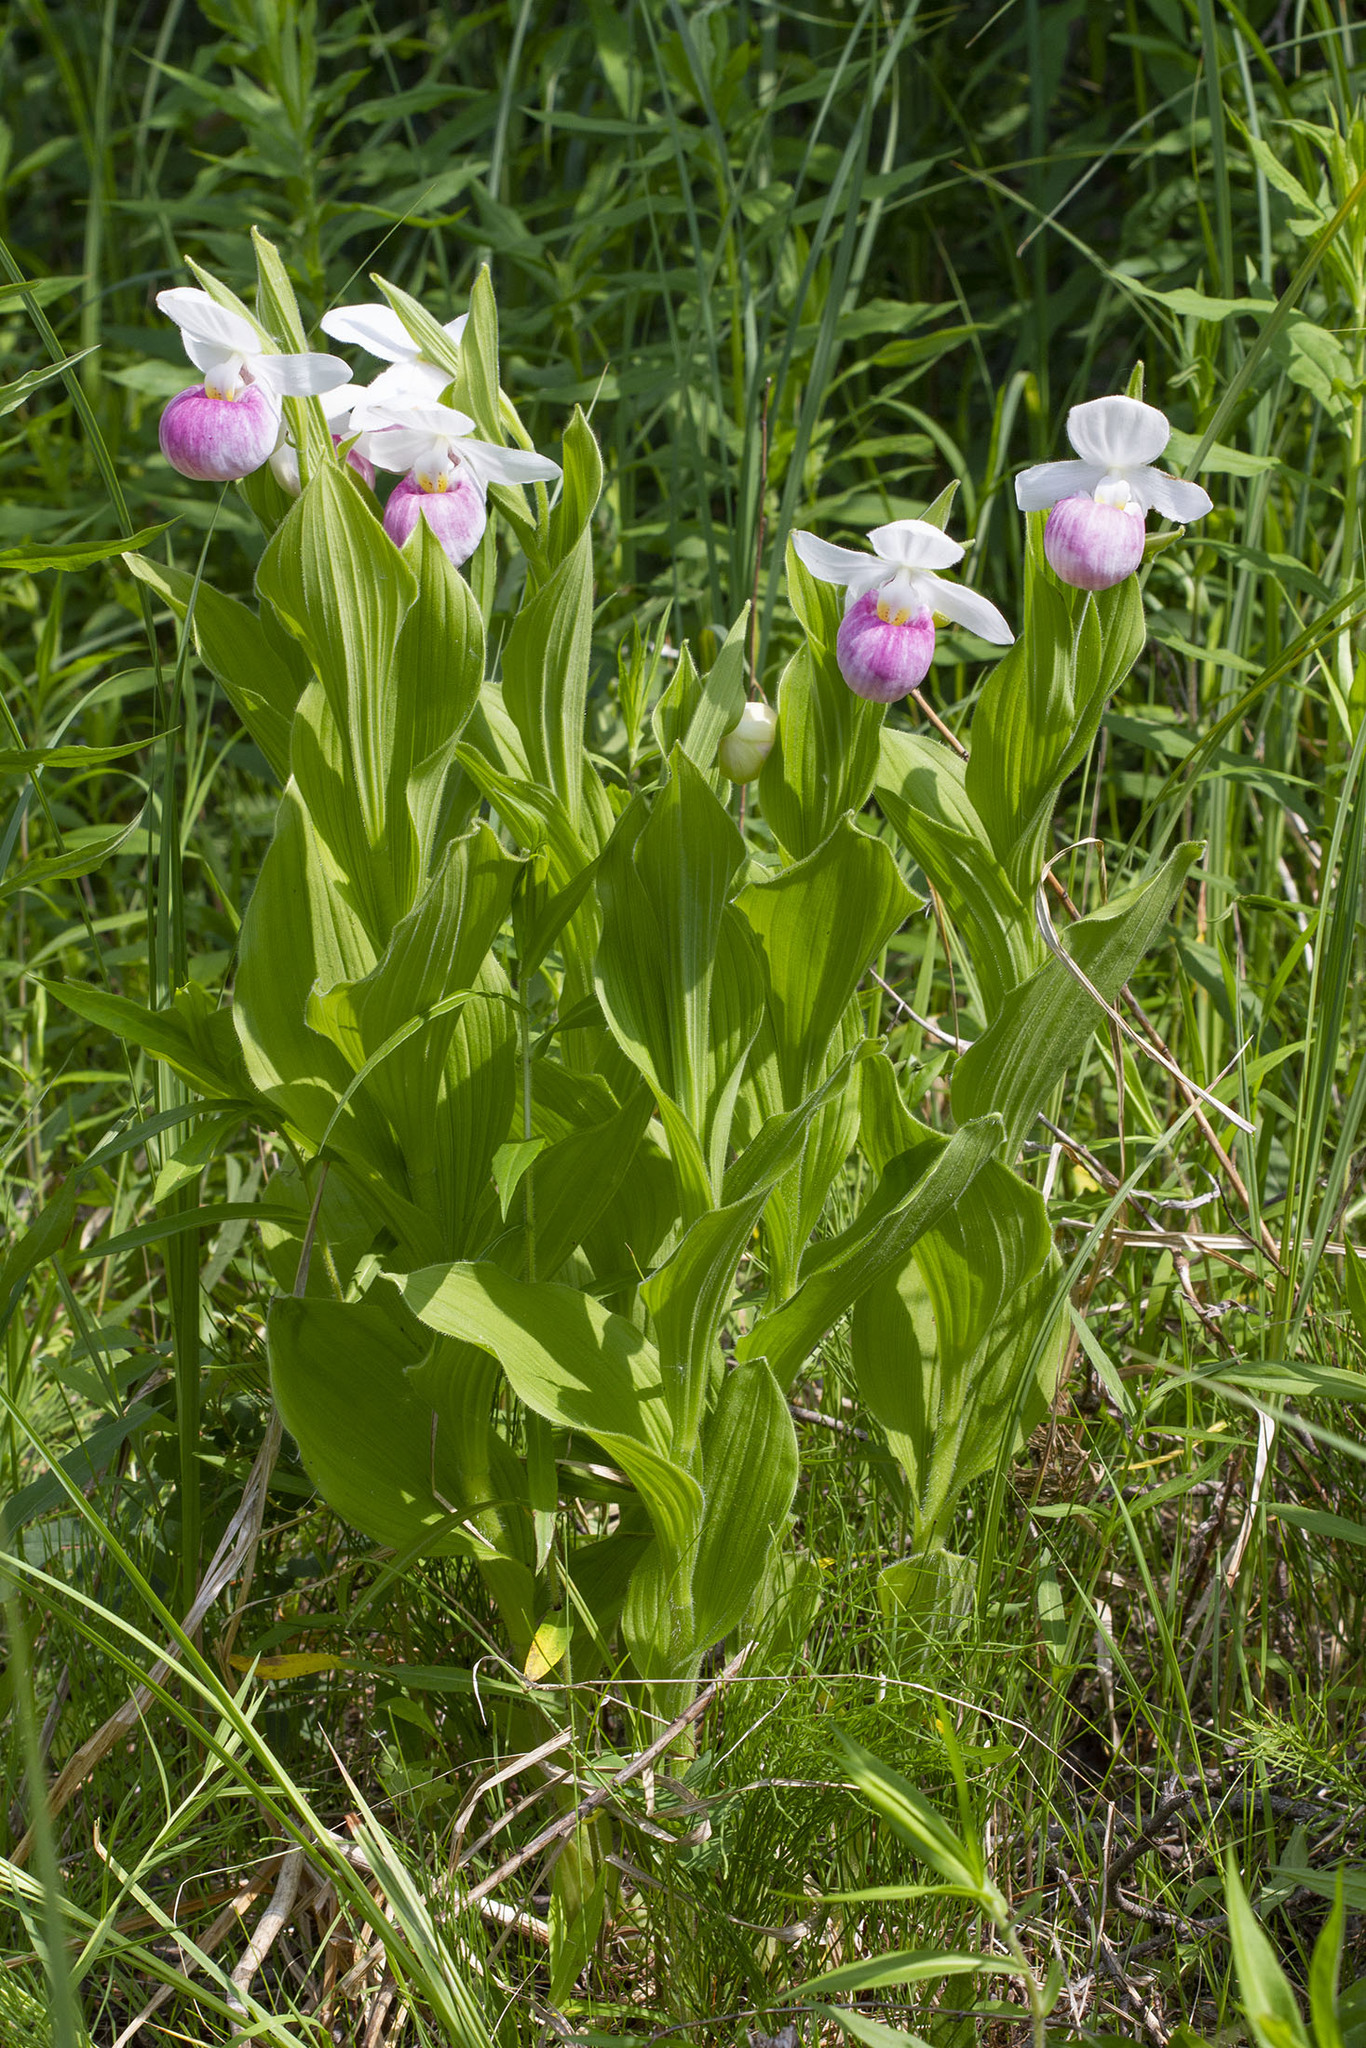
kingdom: Plantae
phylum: Tracheophyta
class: Liliopsida
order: Asparagales
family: Orchidaceae
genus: Cypripedium
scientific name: Cypripedium reginae
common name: Queen lady's-slipper
